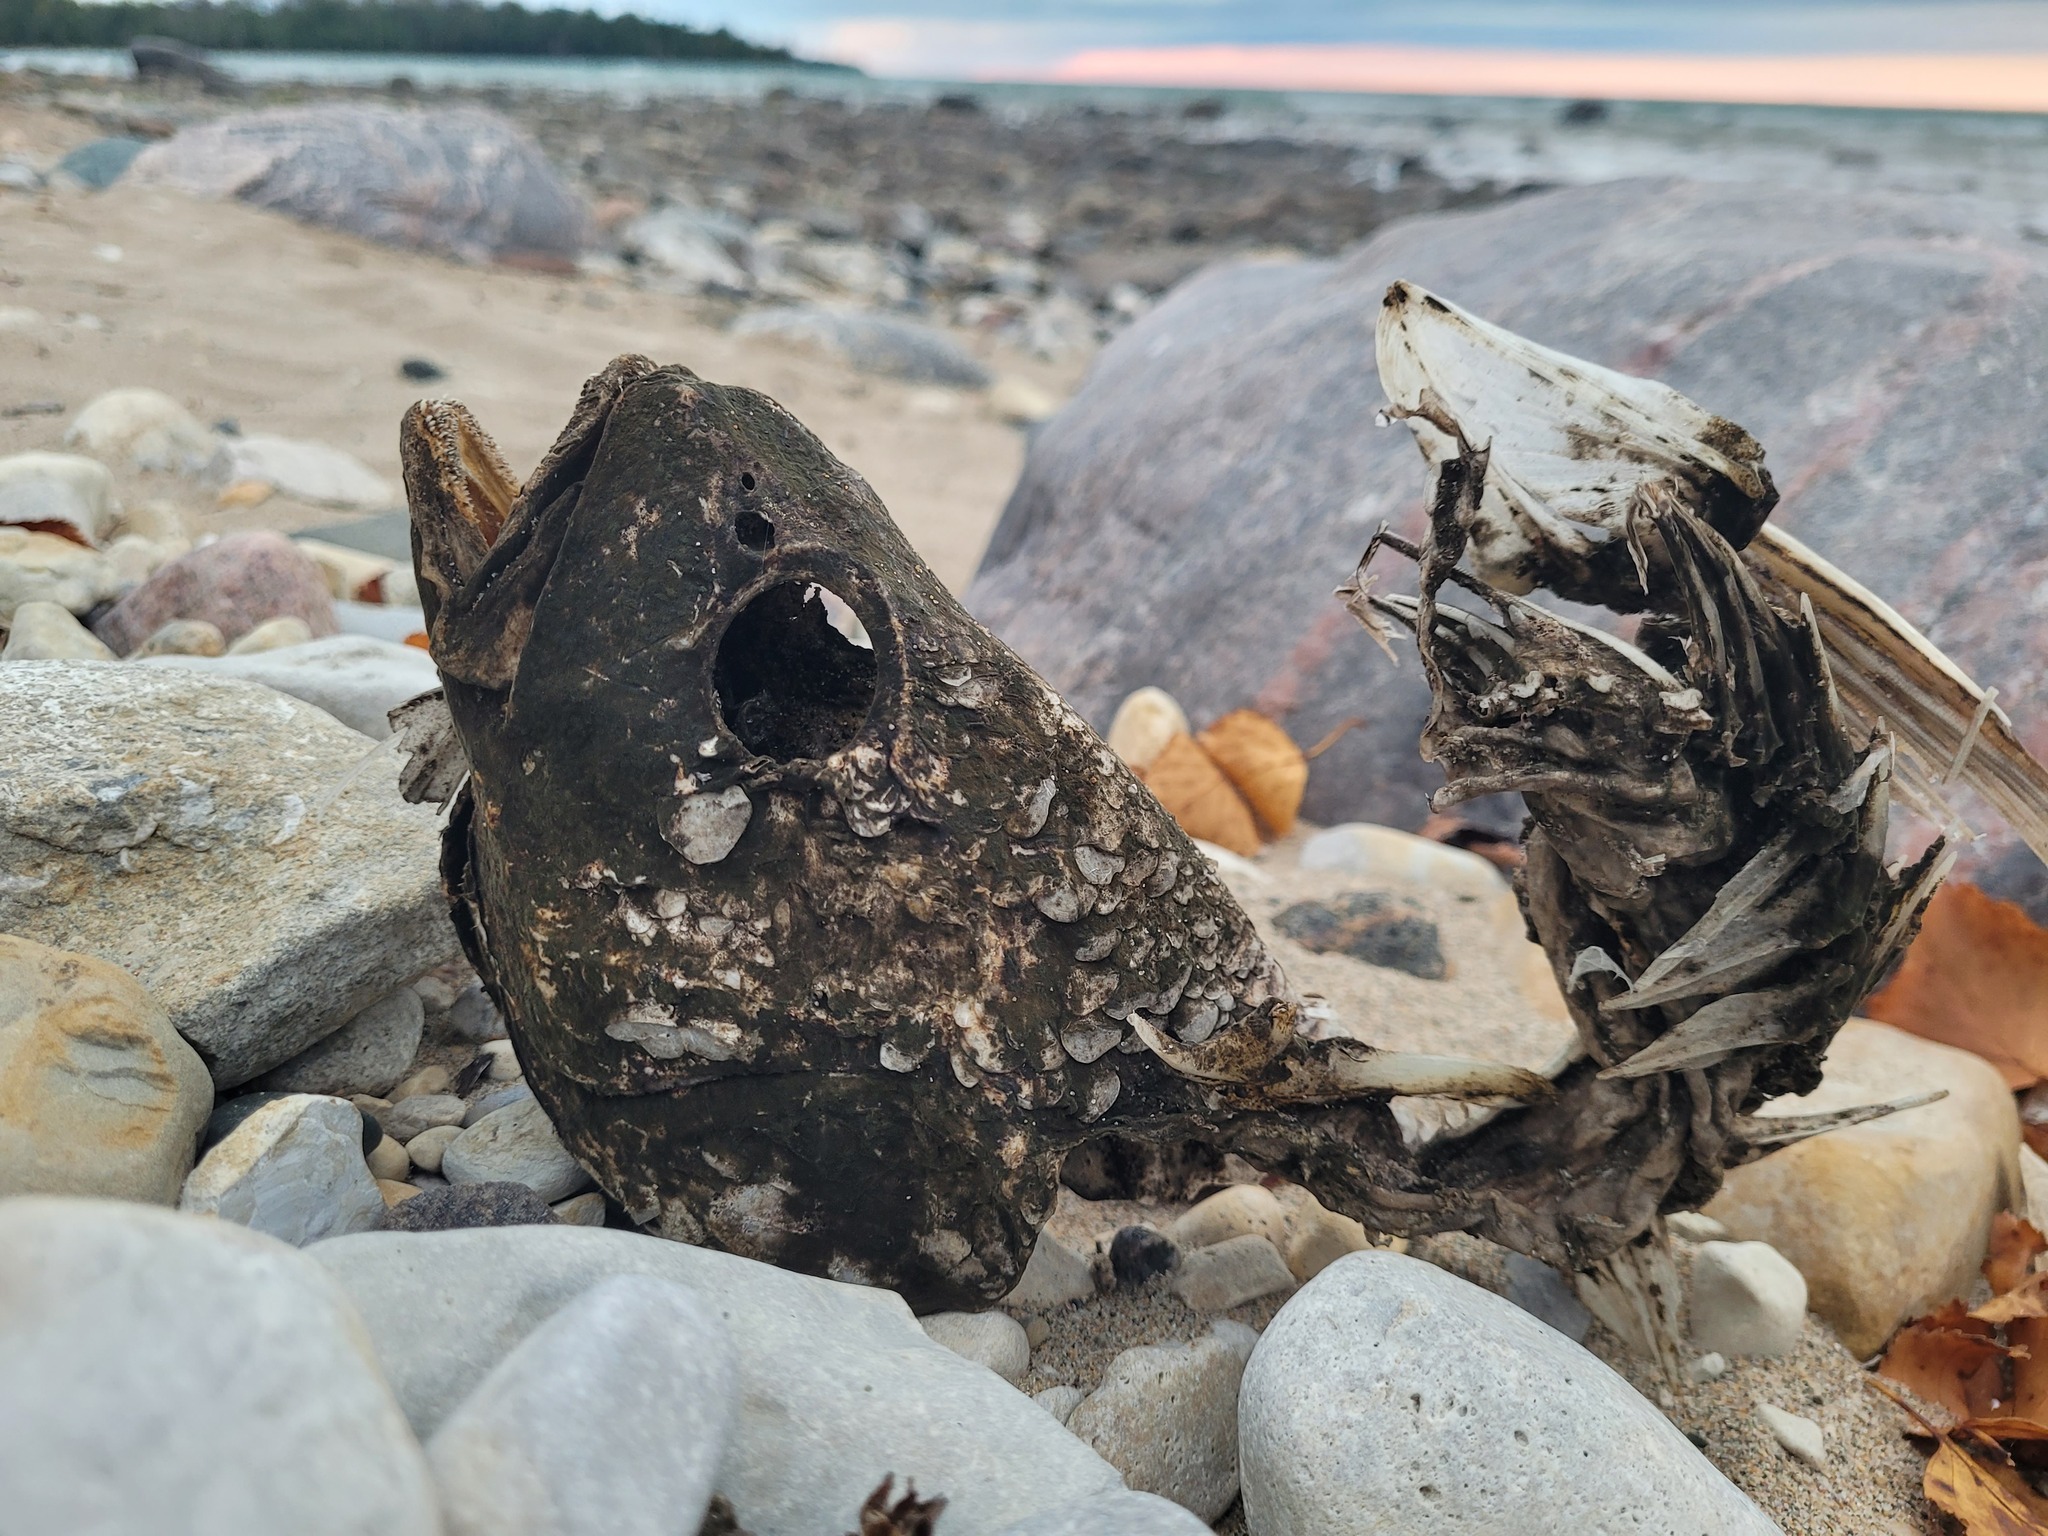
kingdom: Animalia
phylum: Chordata
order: Perciformes
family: Sciaenidae
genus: Aplodinotus
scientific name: Aplodinotus grunniens
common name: Freshwater drum
